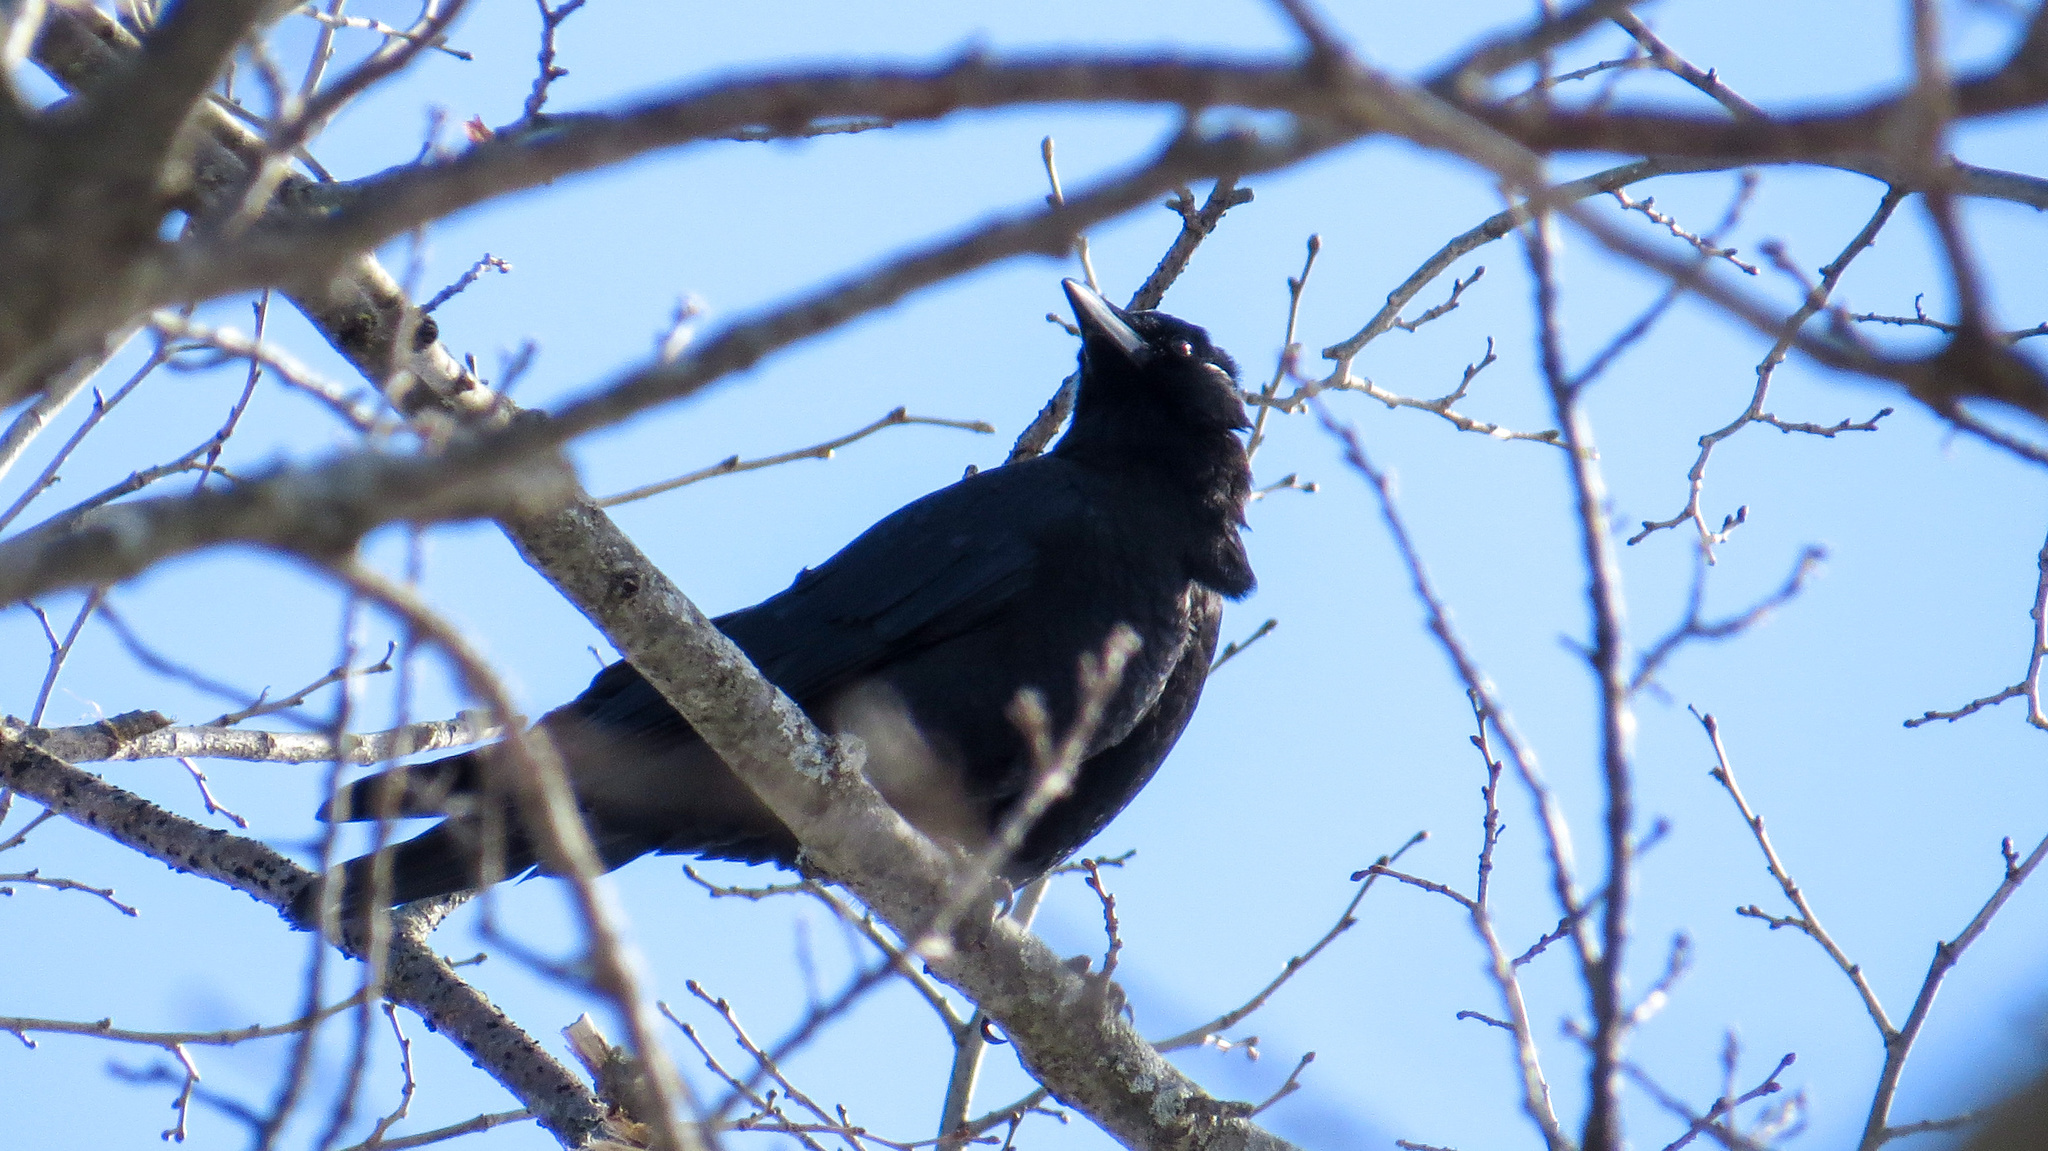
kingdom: Animalia
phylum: Chordata
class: Aves
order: Passeriformes
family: Corvidae
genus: Corvus
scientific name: Corvus brachyrhynchos
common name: American crow
